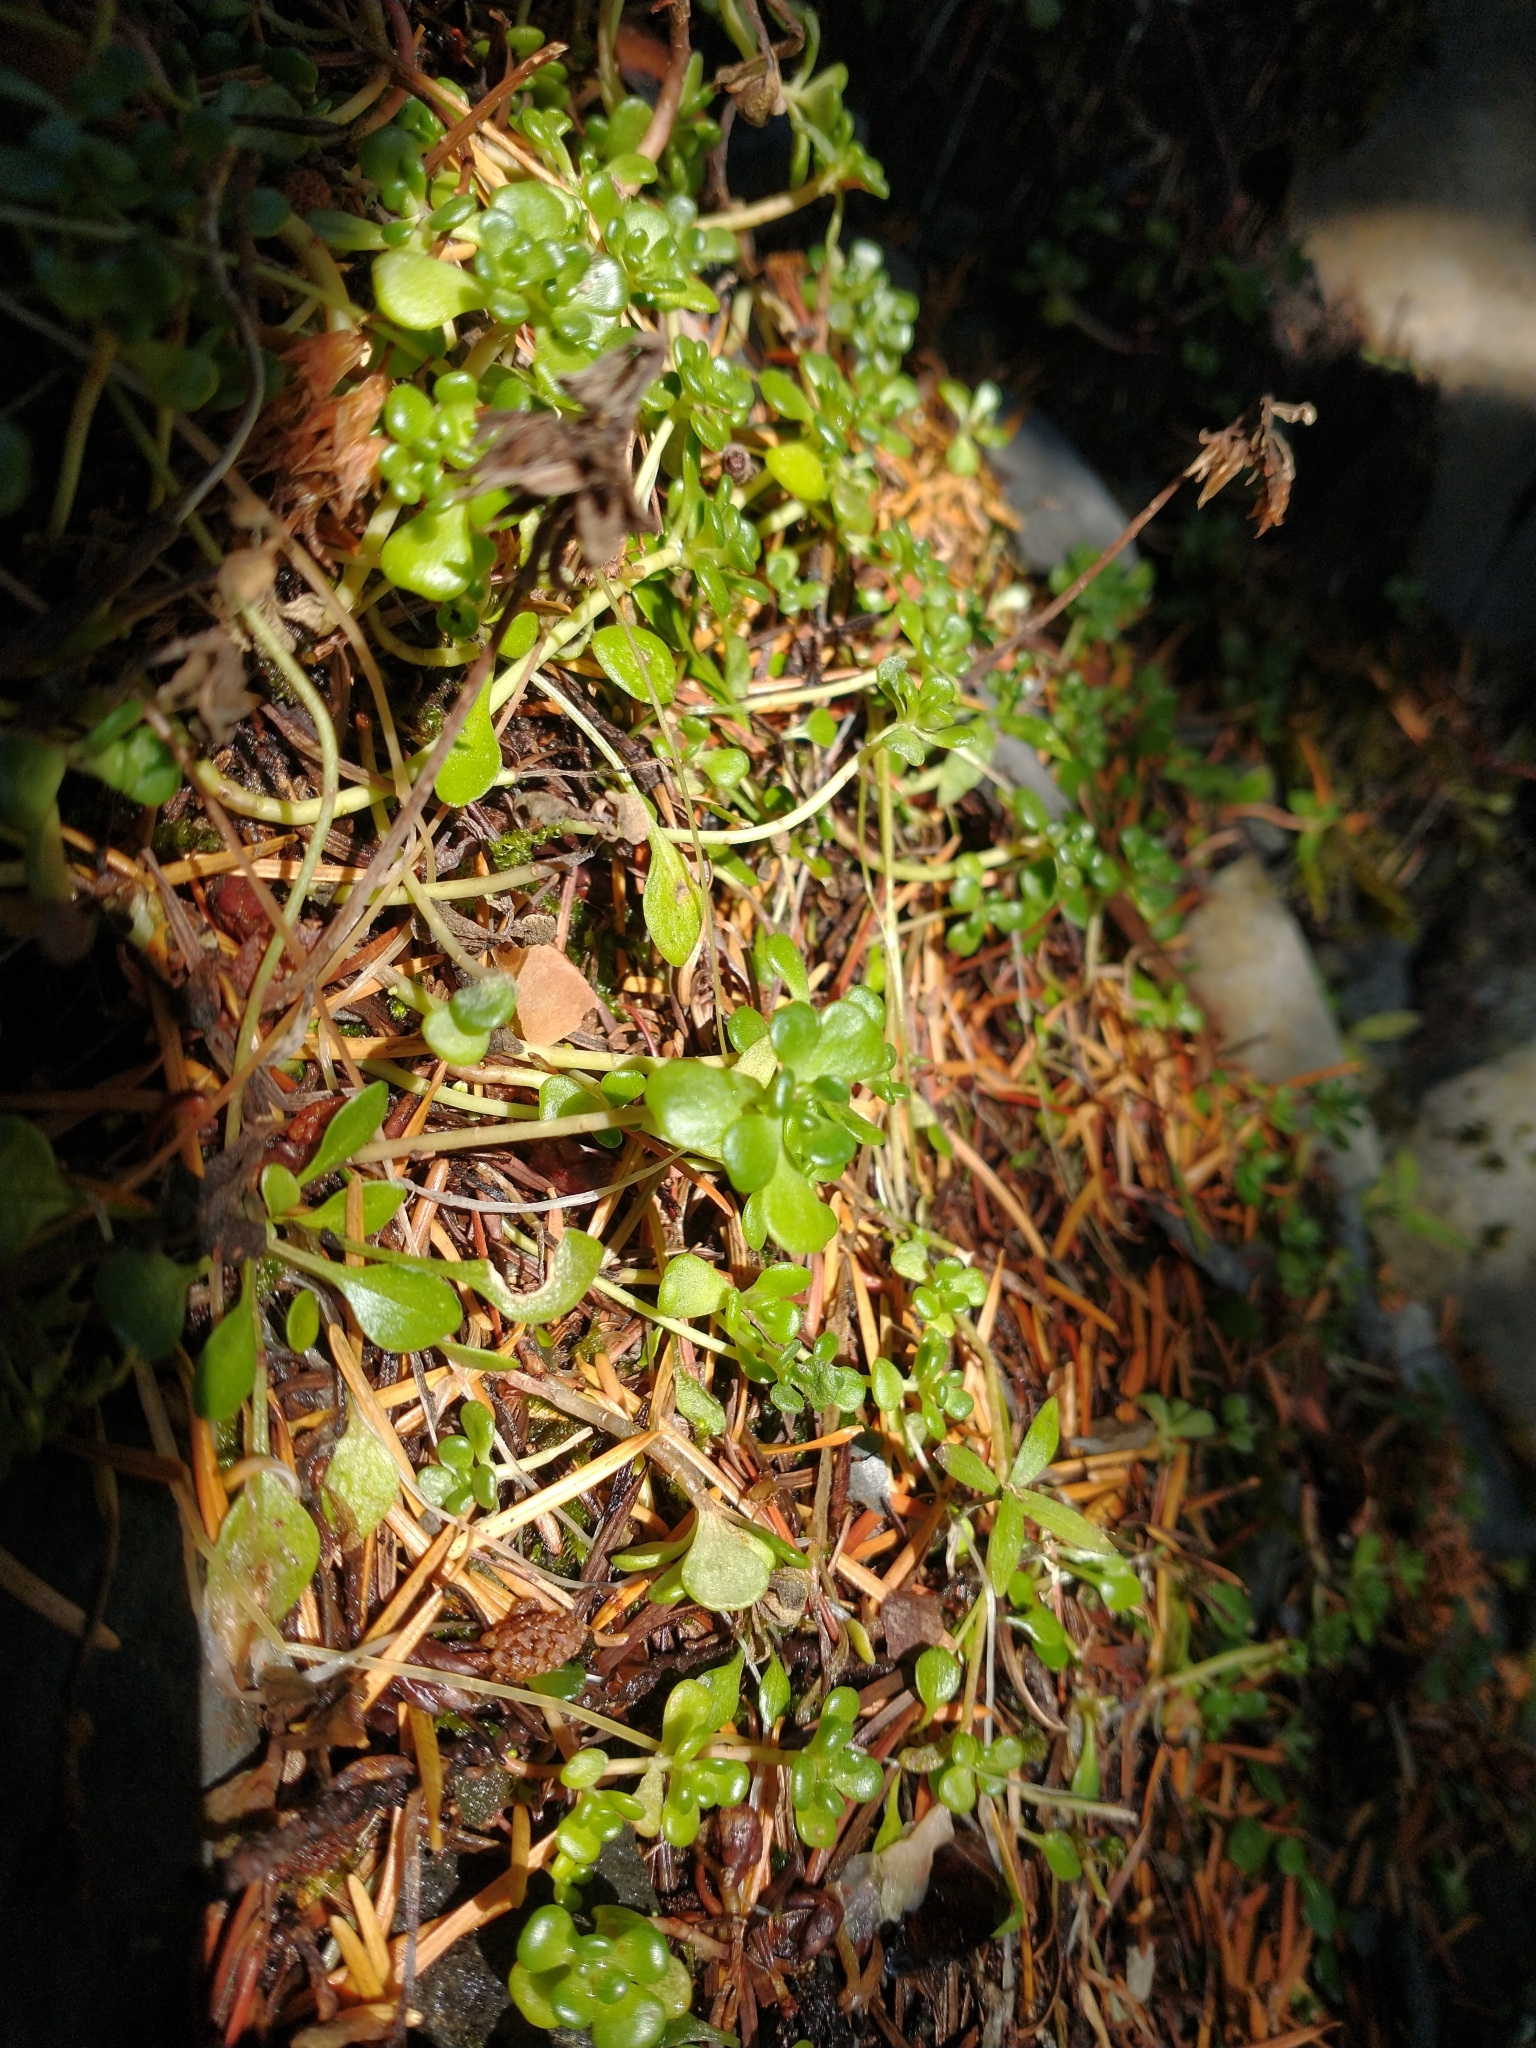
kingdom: Plantae
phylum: Tracheophyta
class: Magnoliopsida
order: Saxifragales
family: Crassulaceae
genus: Sedum
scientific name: Sedum oreganum
